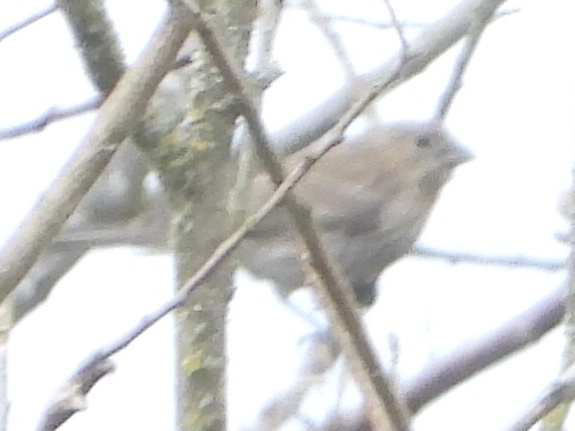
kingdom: Animalia
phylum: Chordata
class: Aves
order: Passeriformes
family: Fringillidae
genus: Haemorhous
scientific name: Haemorhous mexicanus
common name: House finch
